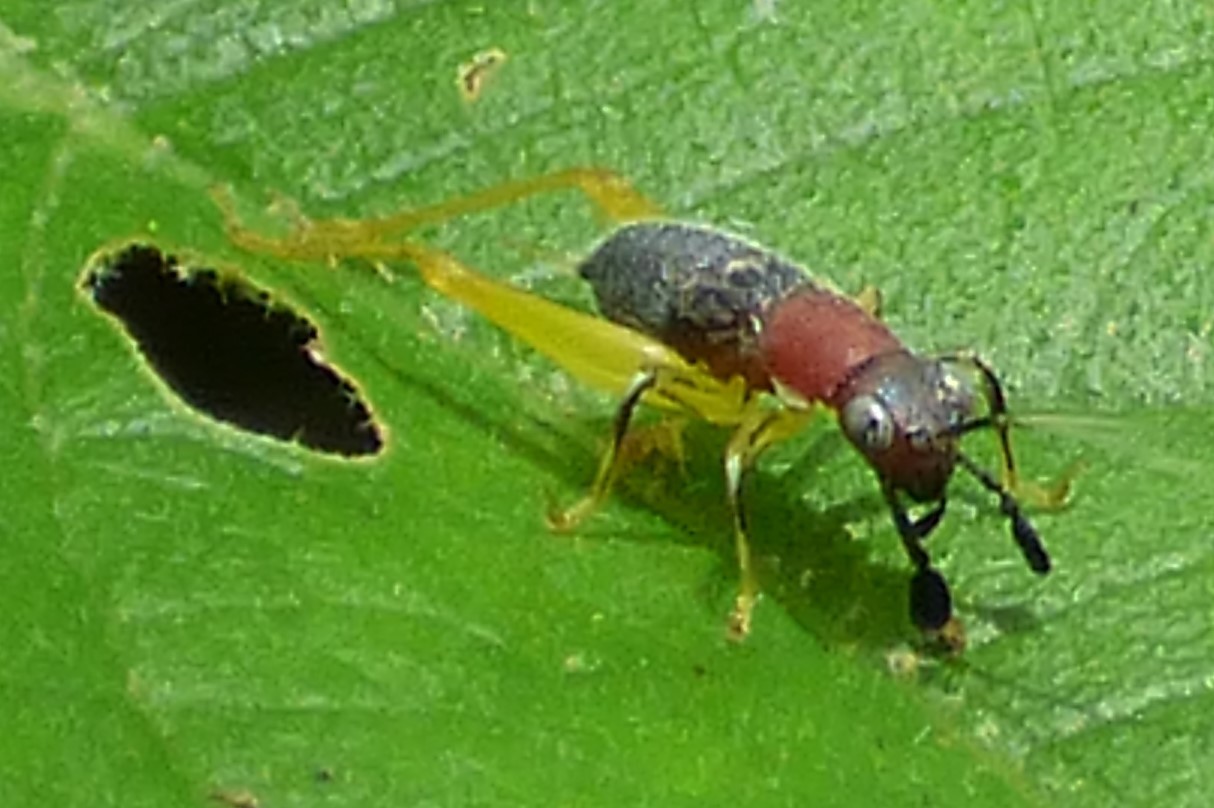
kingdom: Animalia
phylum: Arthropoda
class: Insecta
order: Orthoptera
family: Trigonidiidae
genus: Phyllopalpus
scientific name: Phyllopalpus pulchellus
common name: Handsome trig
